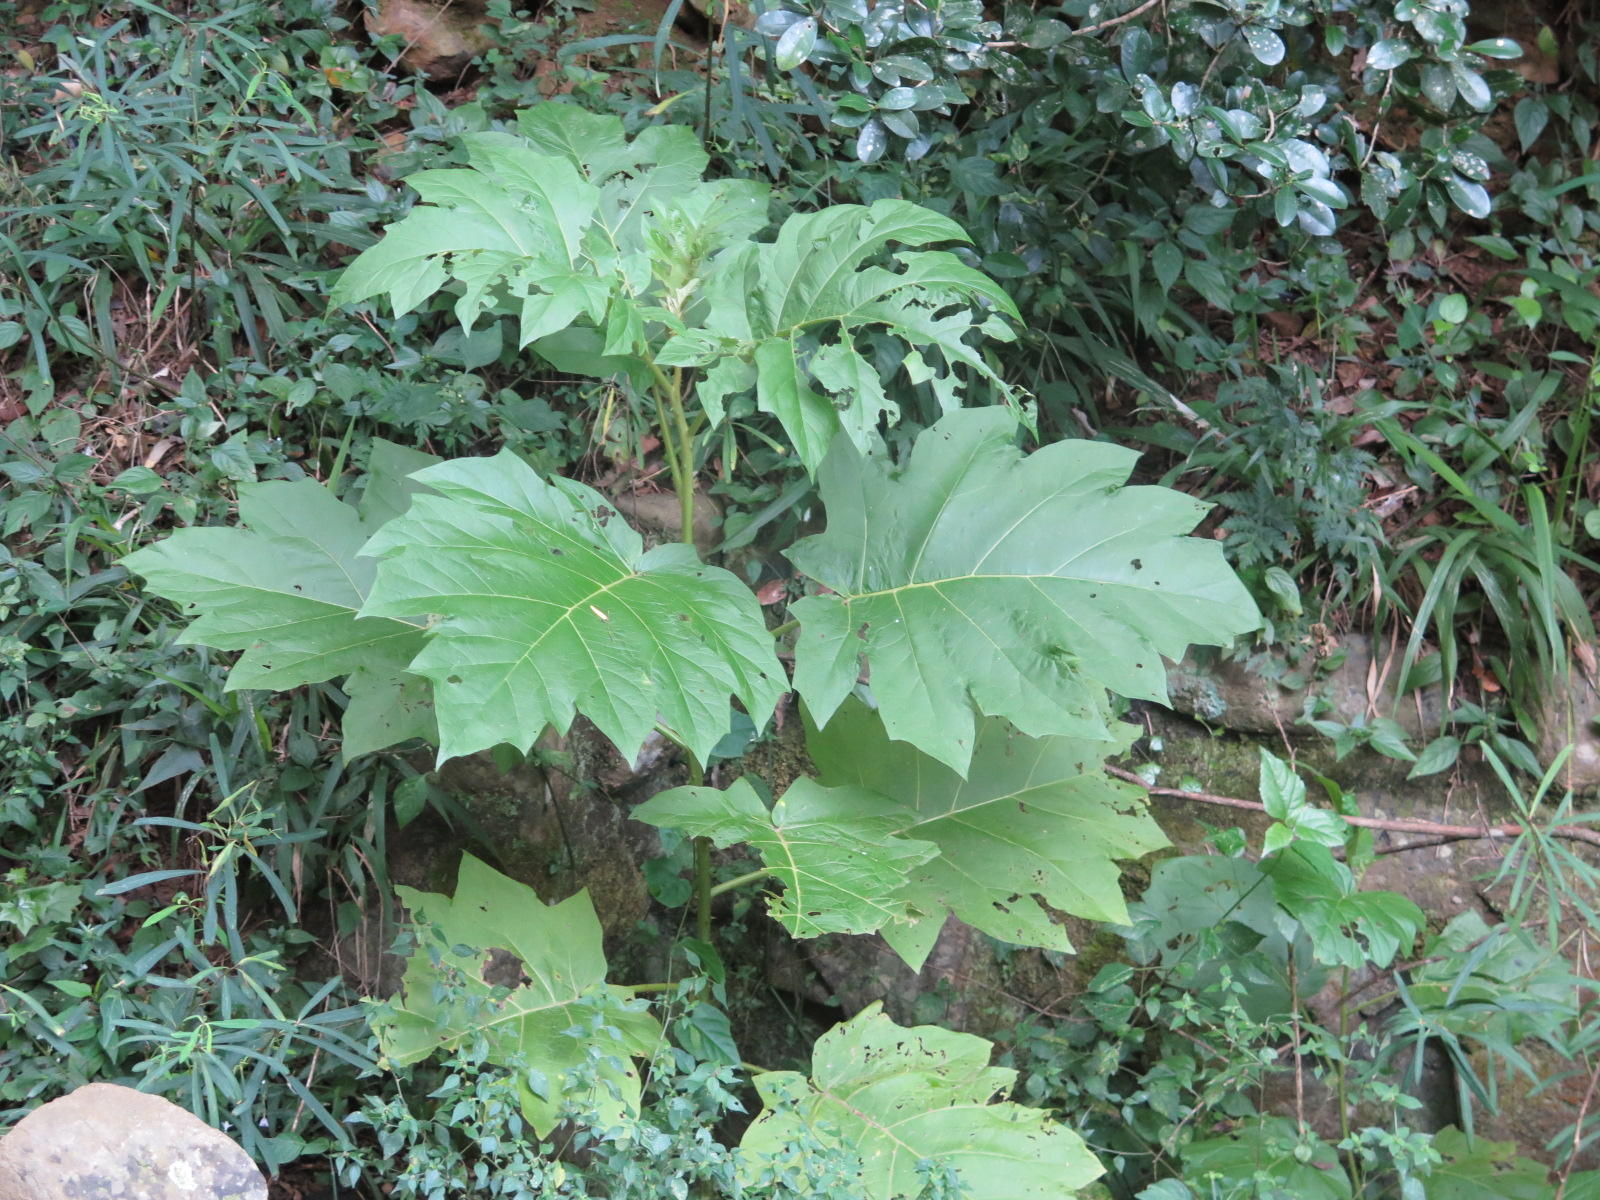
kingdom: Plantae
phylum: Tracheophyta
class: Magnoliopsida
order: Solanales
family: Solanaceae
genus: Solanum
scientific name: Solanum chrysotrichum
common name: Nightshade
